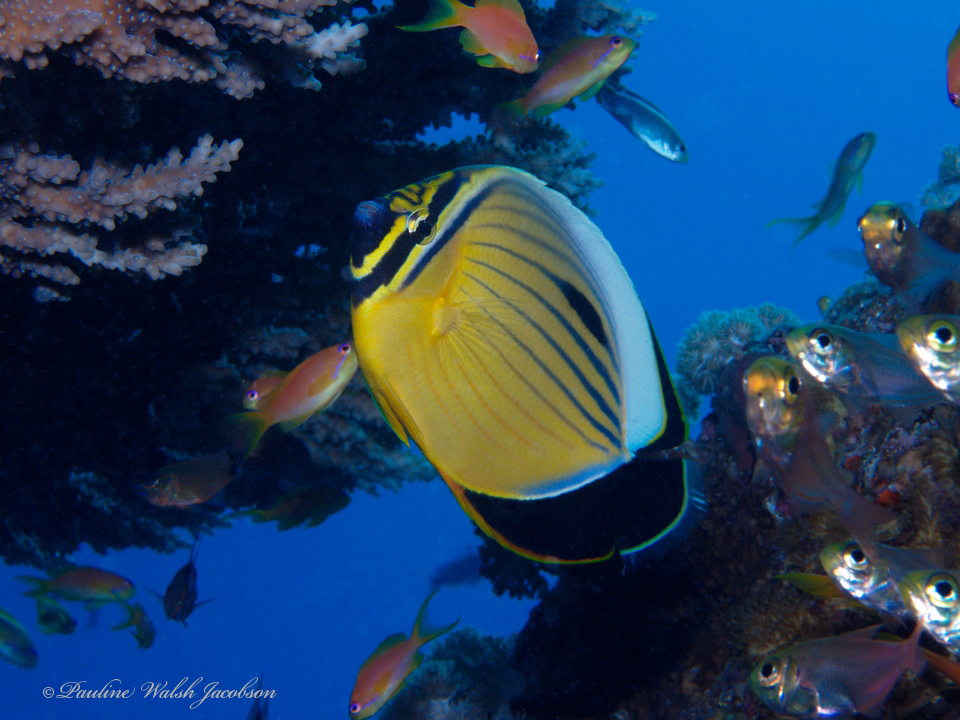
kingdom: Animalia
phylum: Chordata
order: Perciformes
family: Chaetodontidae
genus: Chaetodon
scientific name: Chaetodon austriacus
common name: Exquisite butterflyfish
